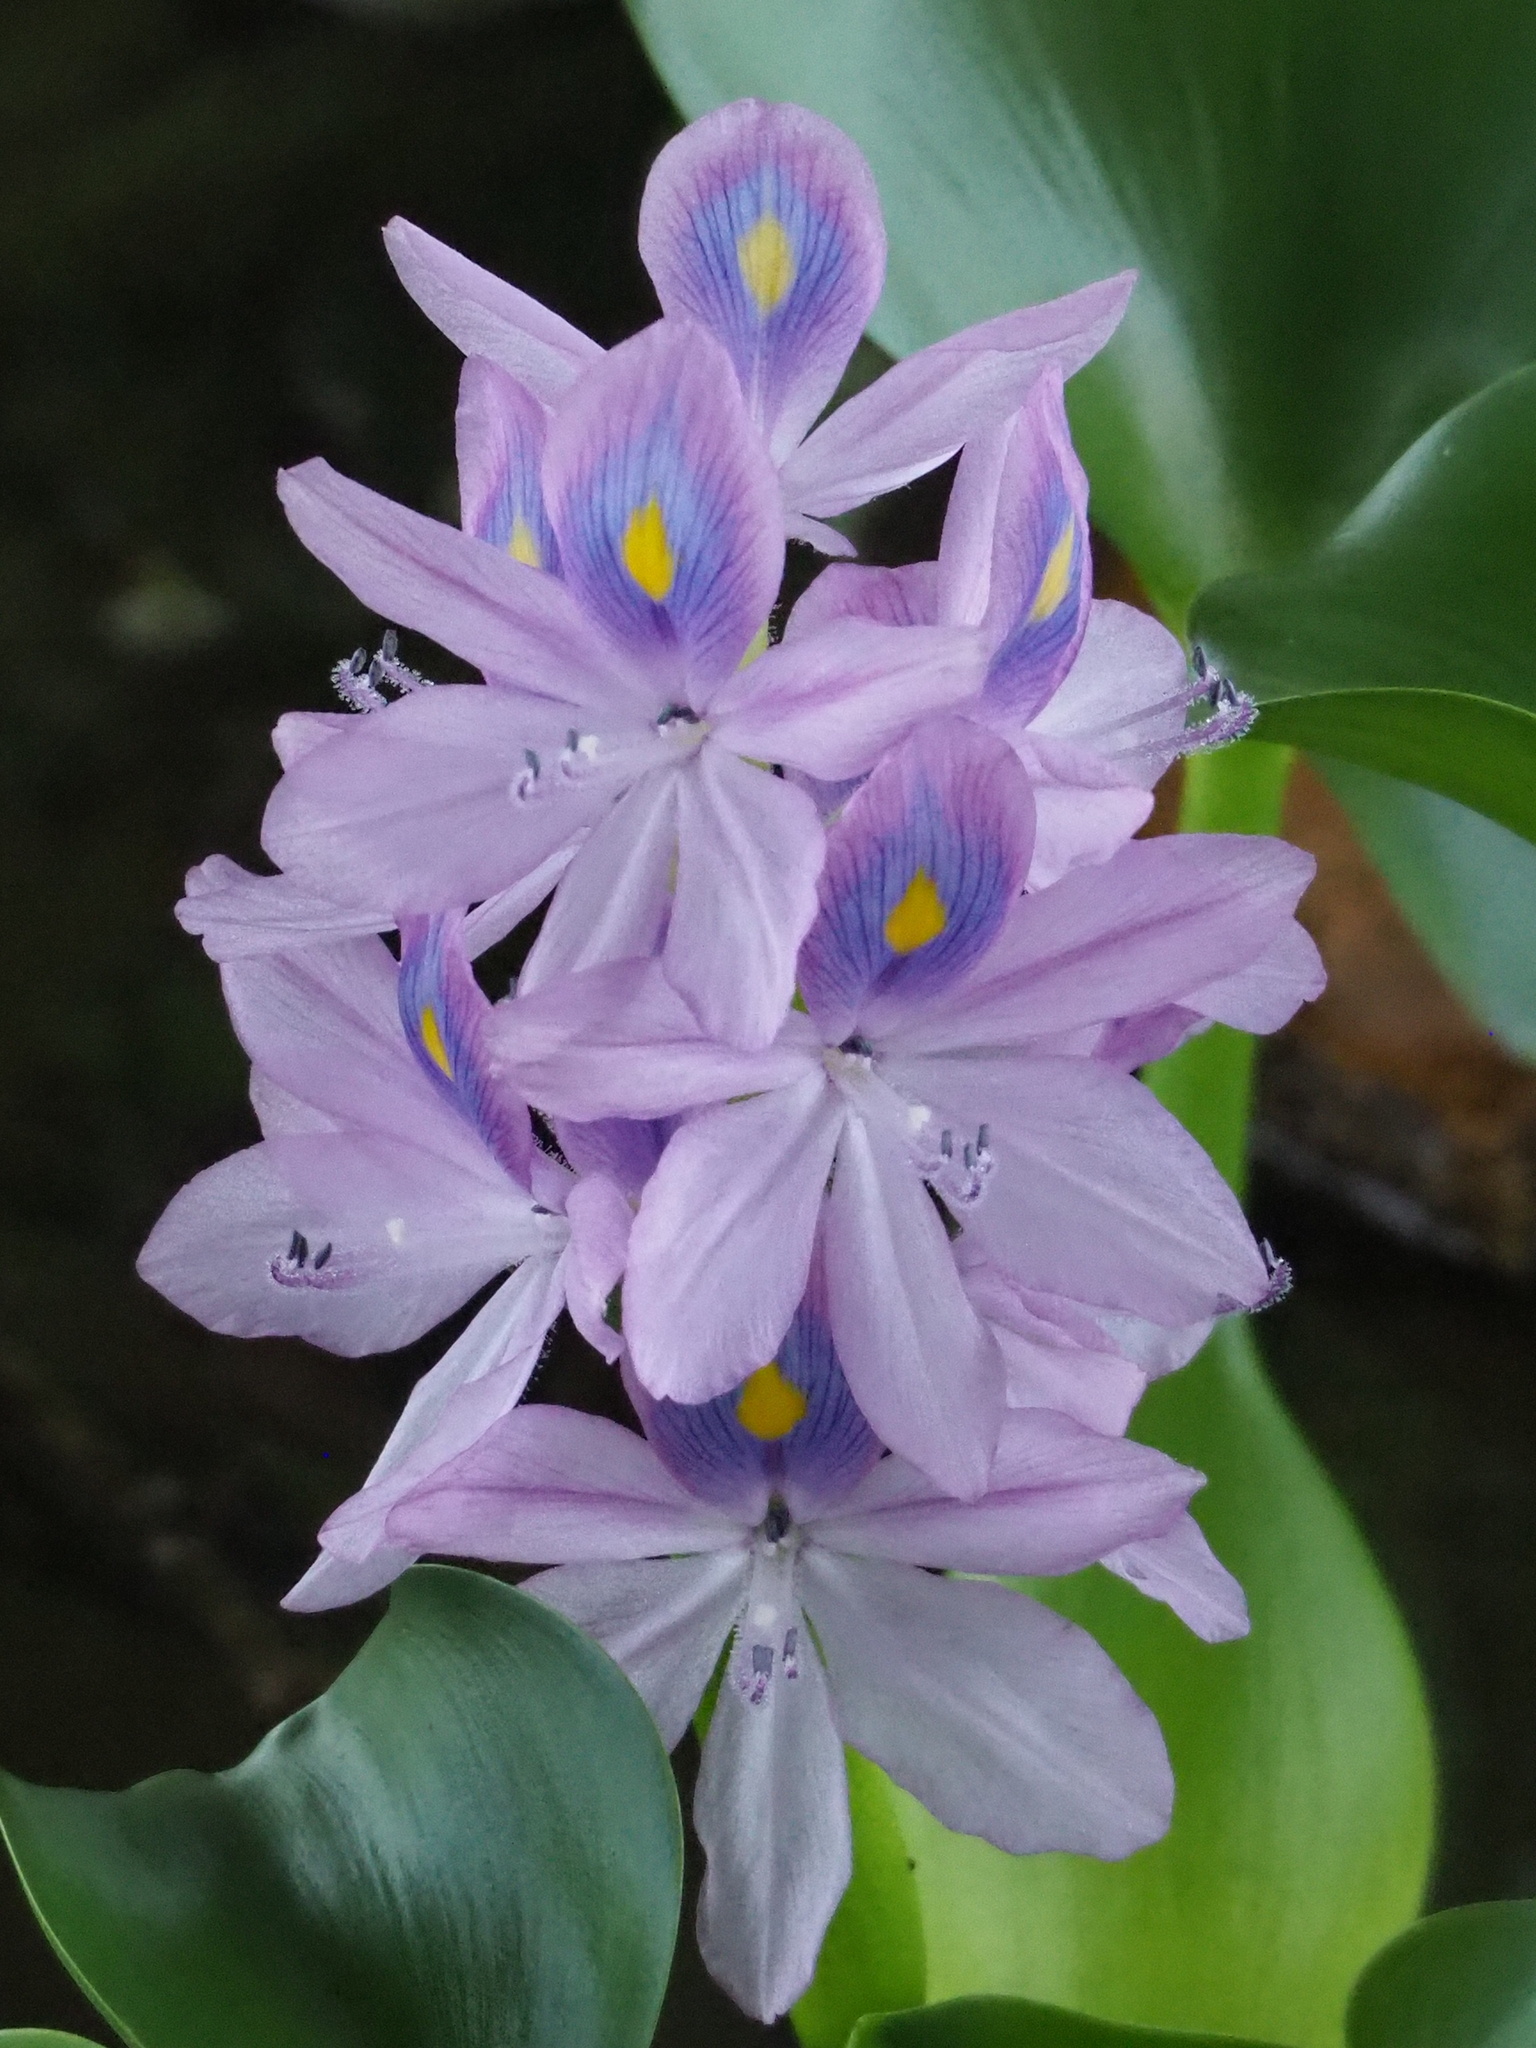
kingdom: Plantae
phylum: Tracheophyta
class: Liliopsida
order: Commelinales
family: Pontederiaceae
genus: Pontederia
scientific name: Pontederia crassipes
